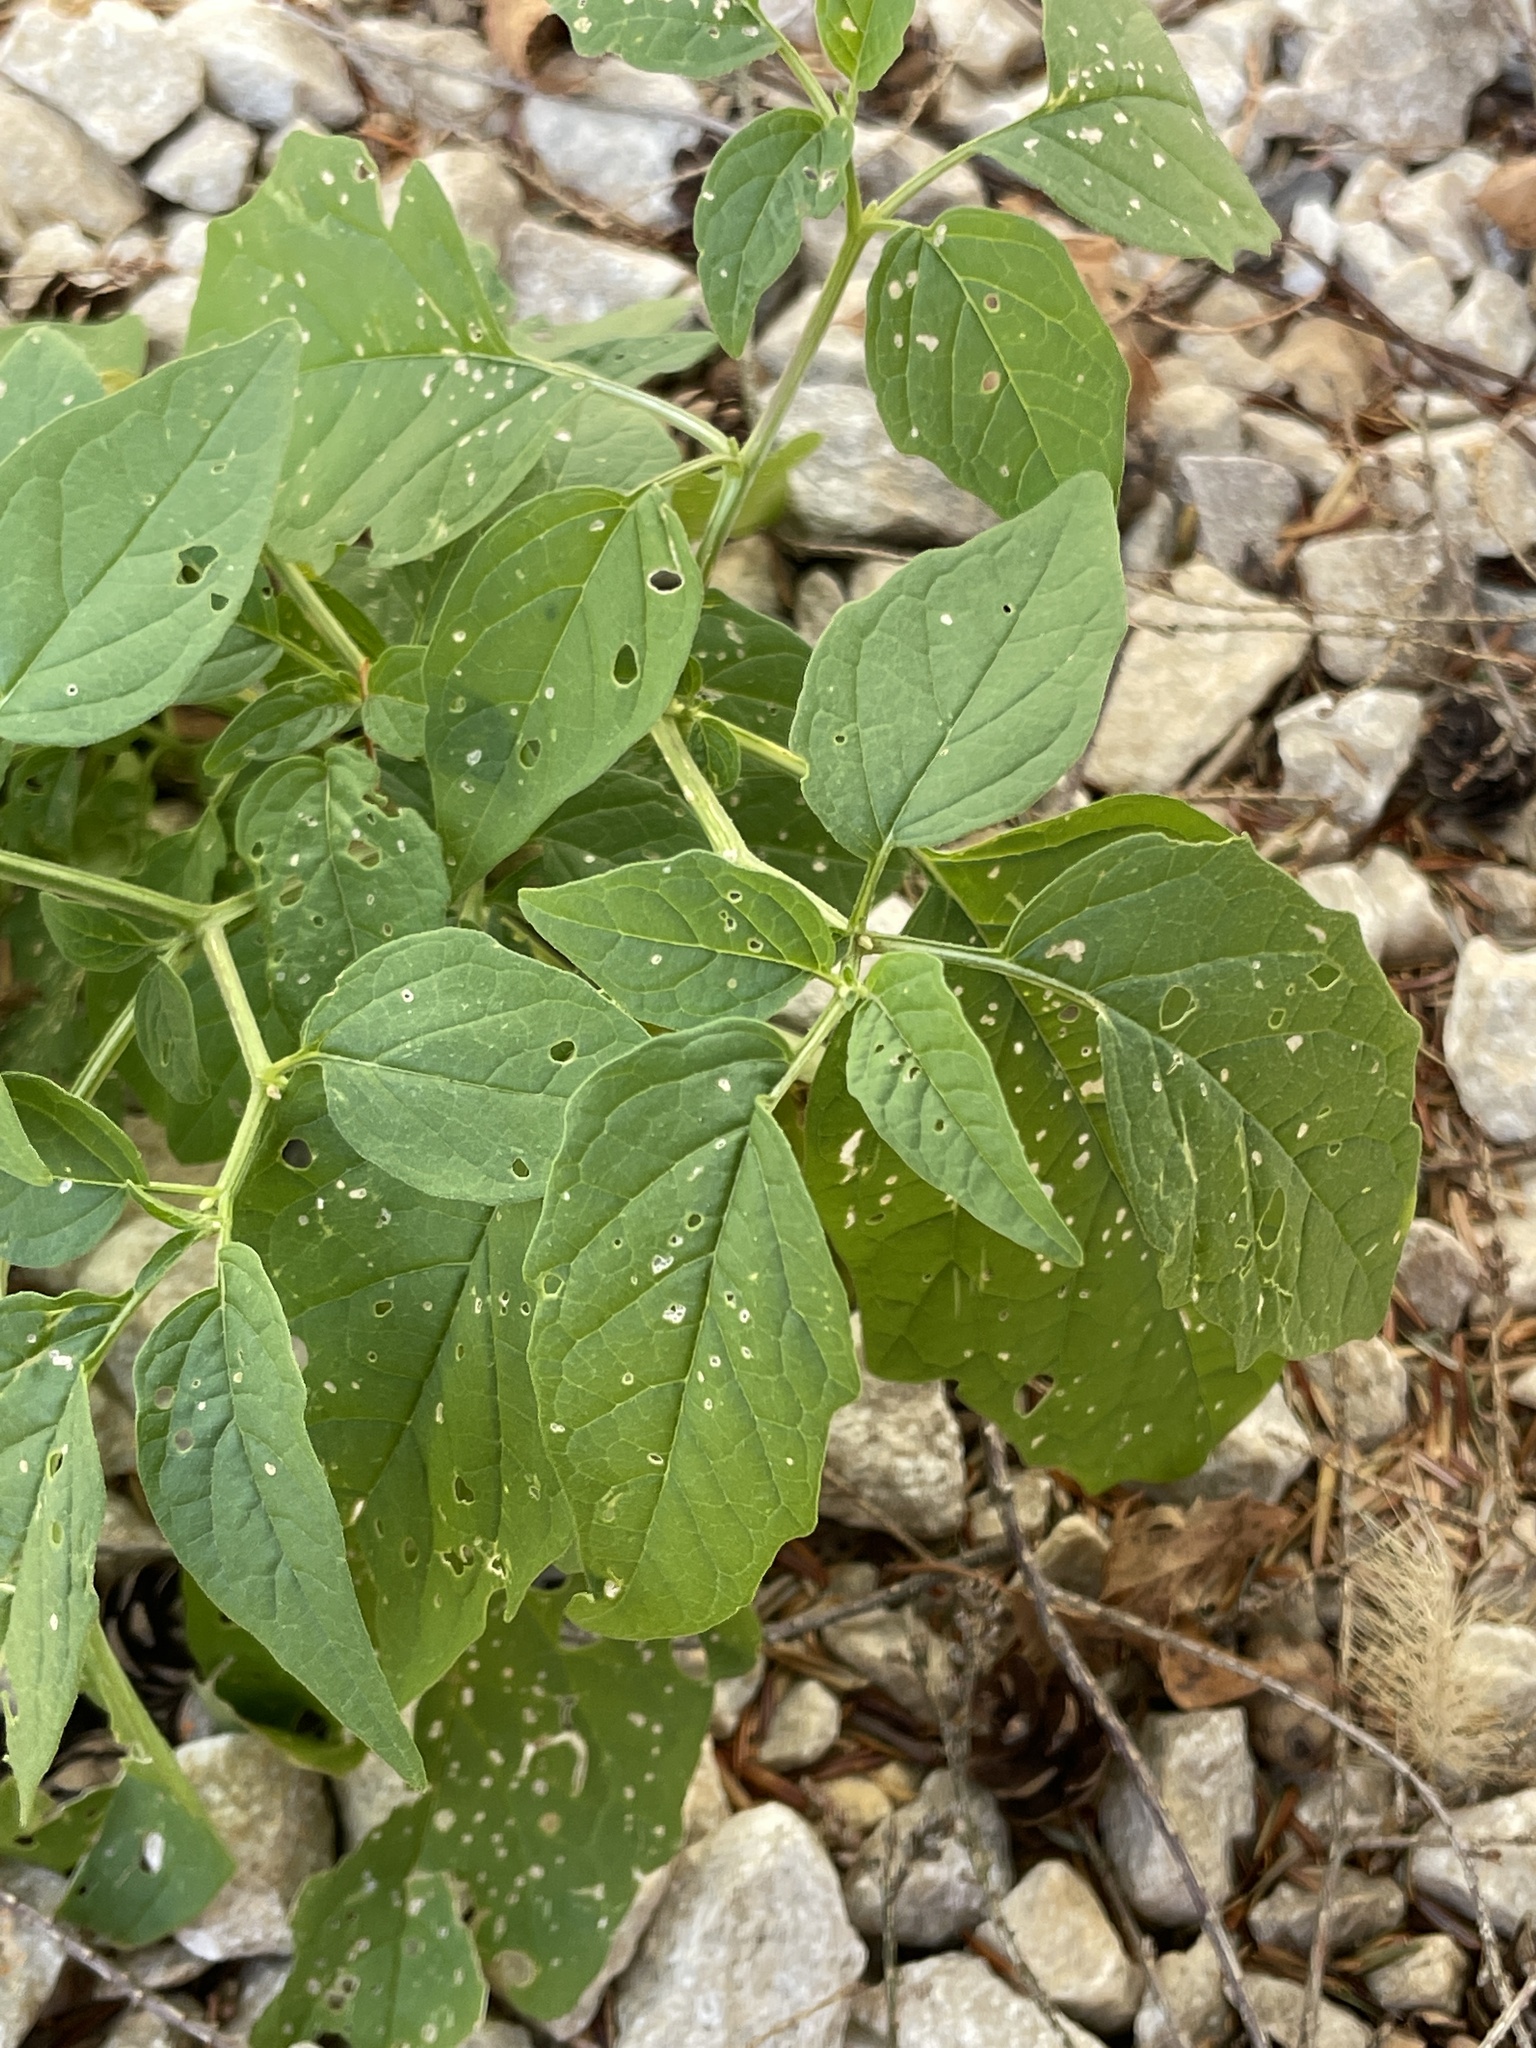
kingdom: Plantae
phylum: Tracheophyta
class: Magnoliopsida
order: Solanales
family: Solanaceae
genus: Physalis
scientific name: Physalis longifolia
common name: Common ground-cherry
